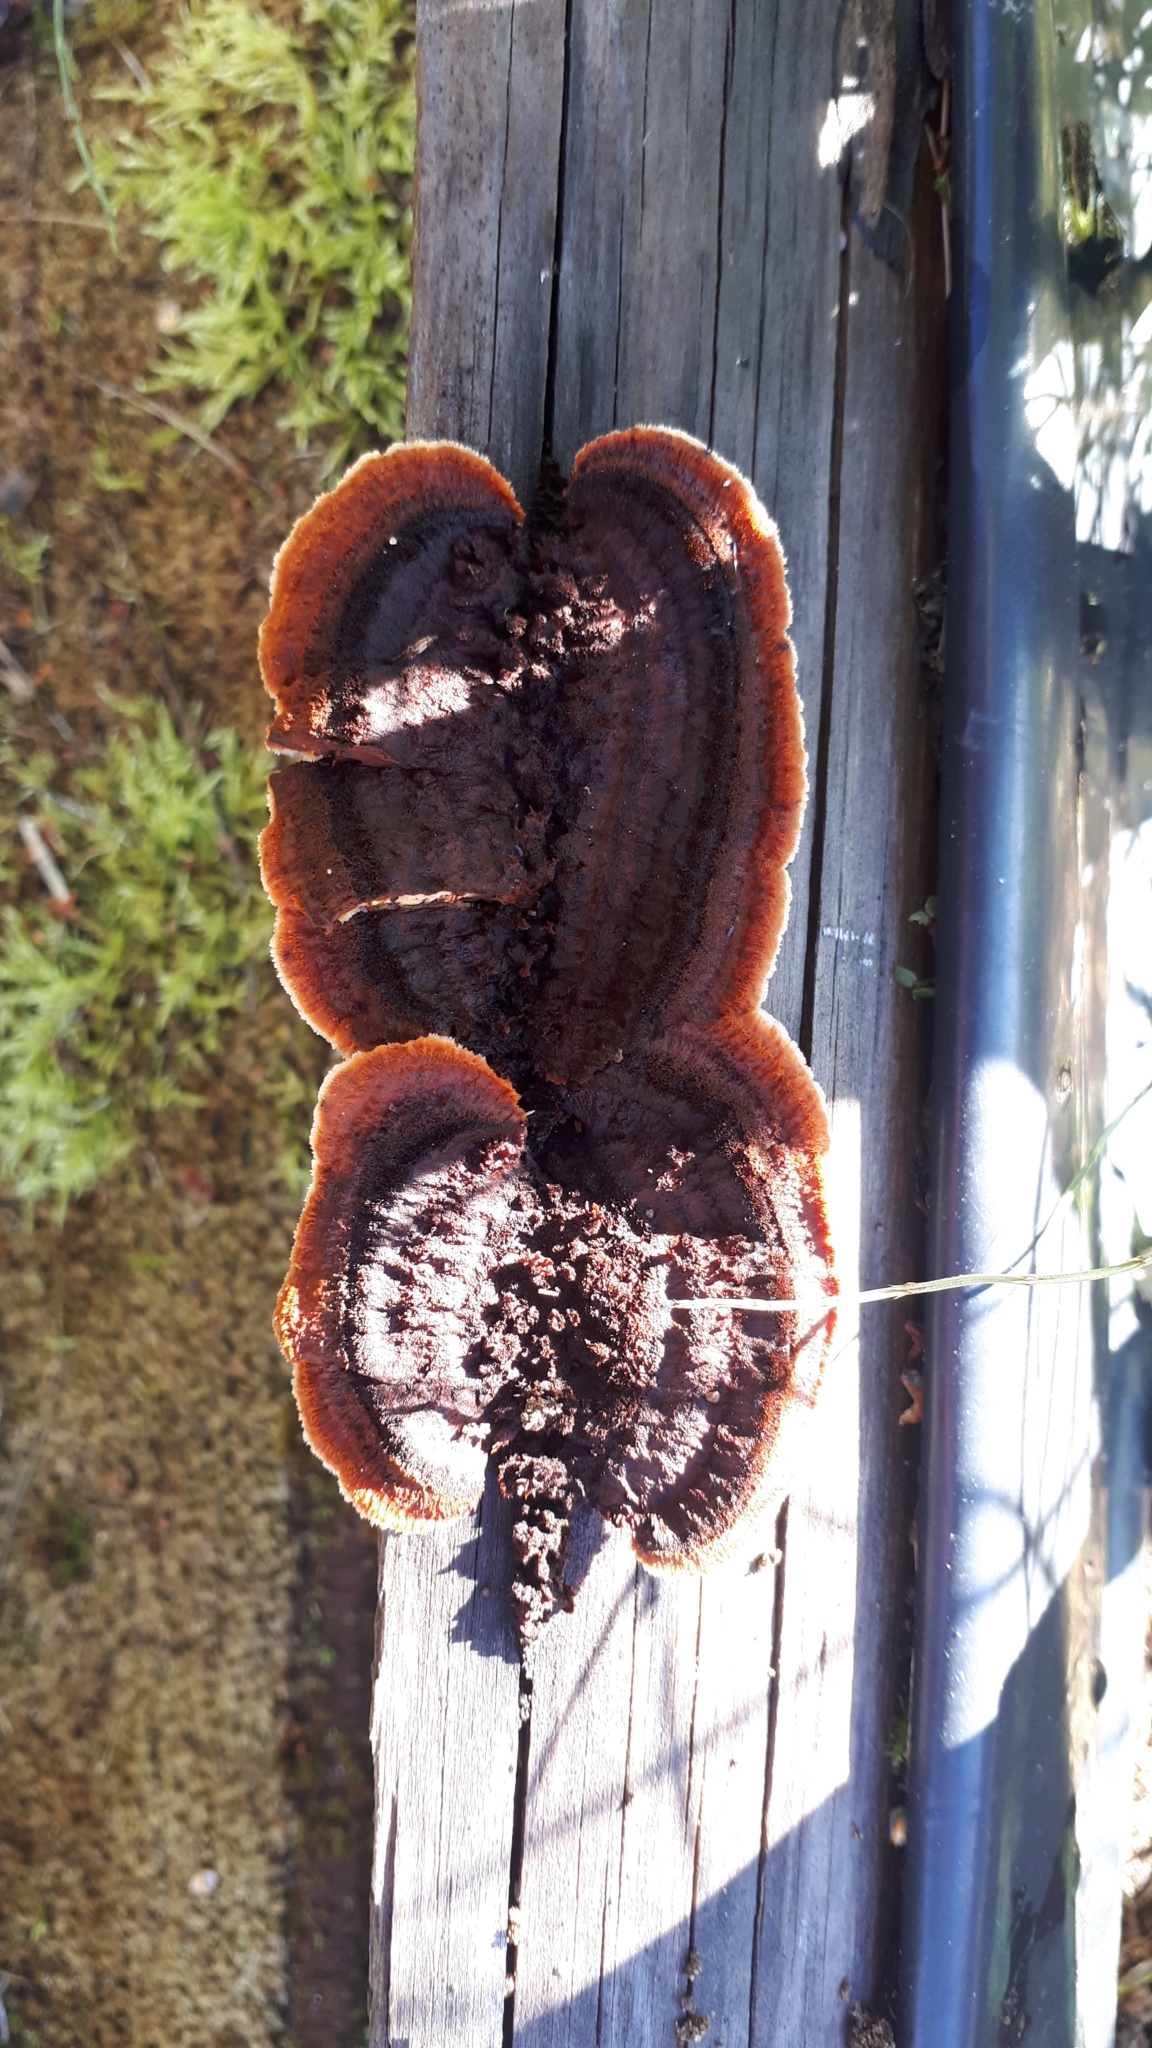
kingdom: Fungi
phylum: Basidiomycota
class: Agaricomycetes
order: Gloeophyllales
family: Gloeophyllaceae
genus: Gloeophyllum
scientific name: Gloeophyllum sepiarium
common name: Conifer mazegill
